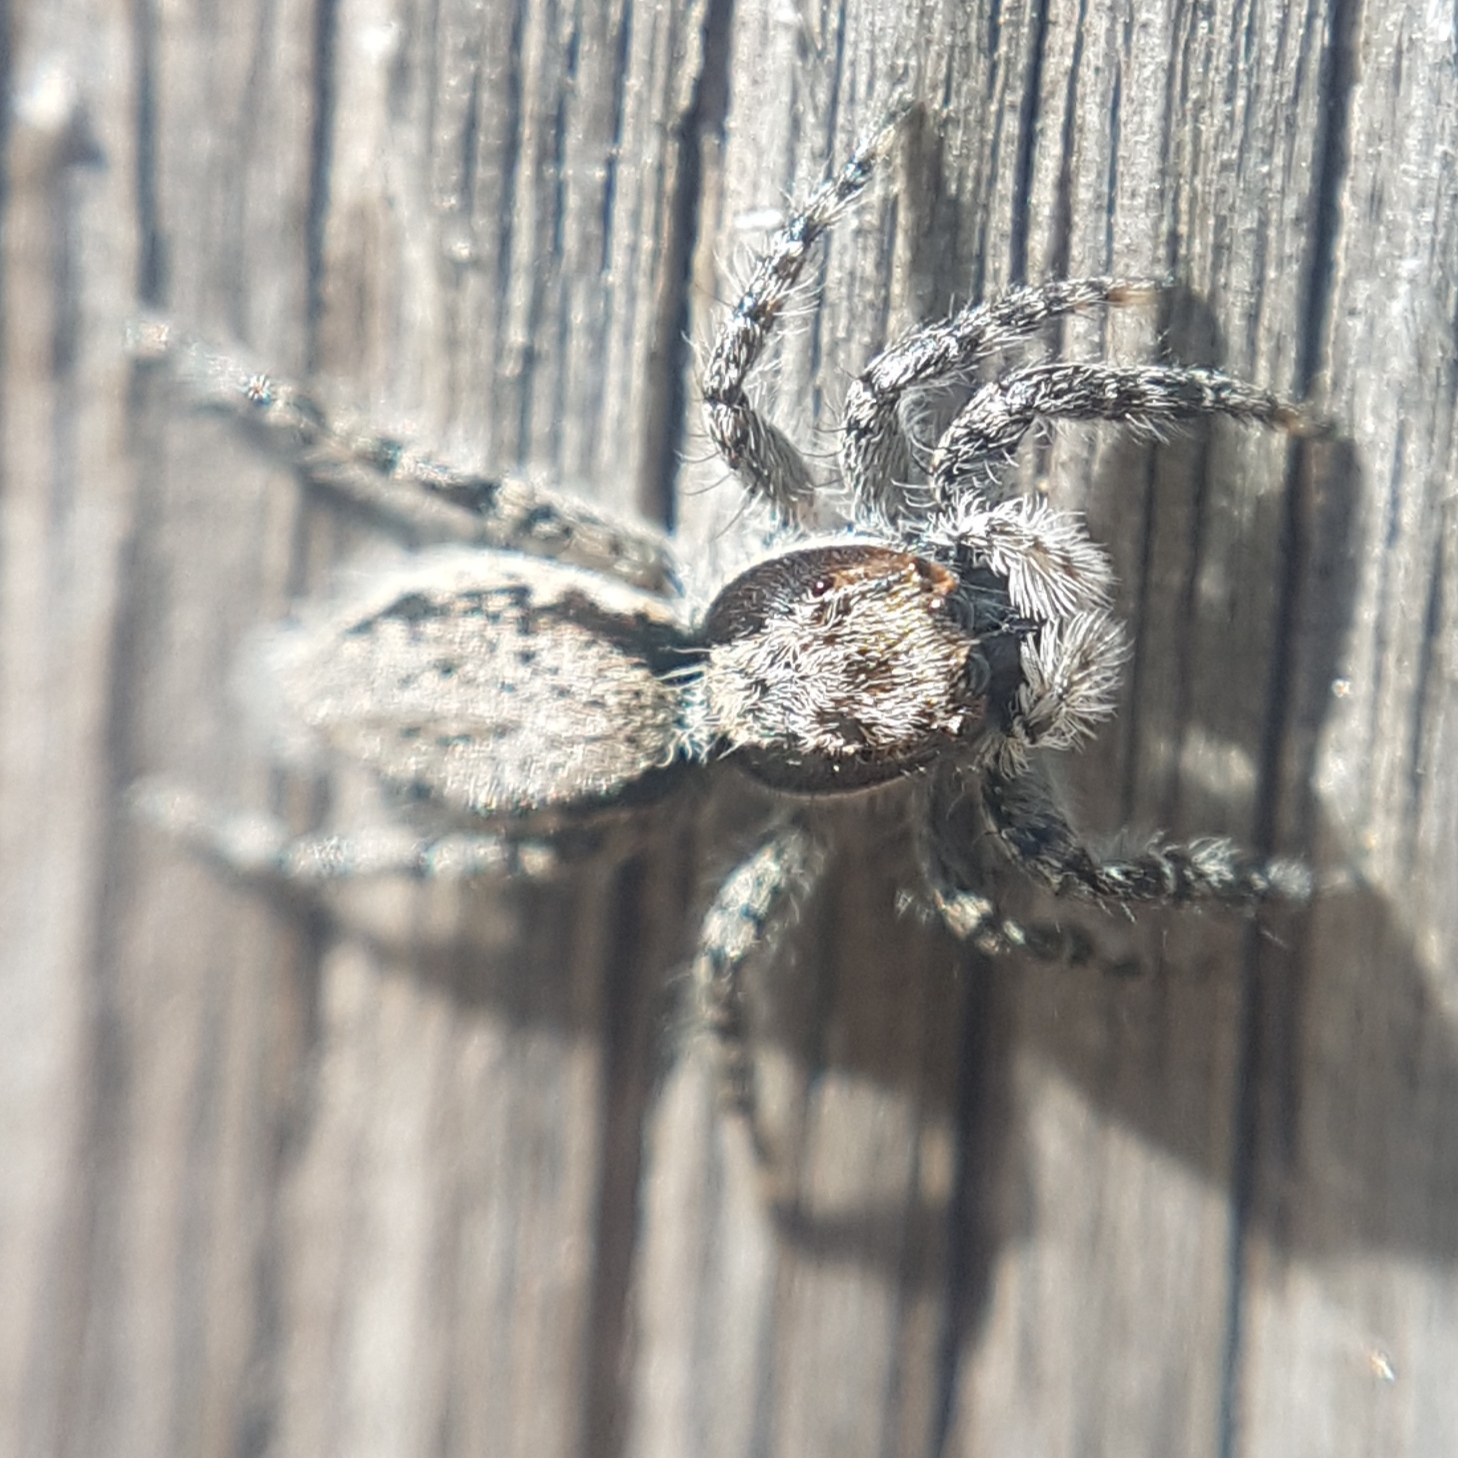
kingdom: Animalia
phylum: Arthropoda
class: Arachnida
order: Araneae
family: Salticidae
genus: Menemerus
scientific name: Menemerus taeniatus
